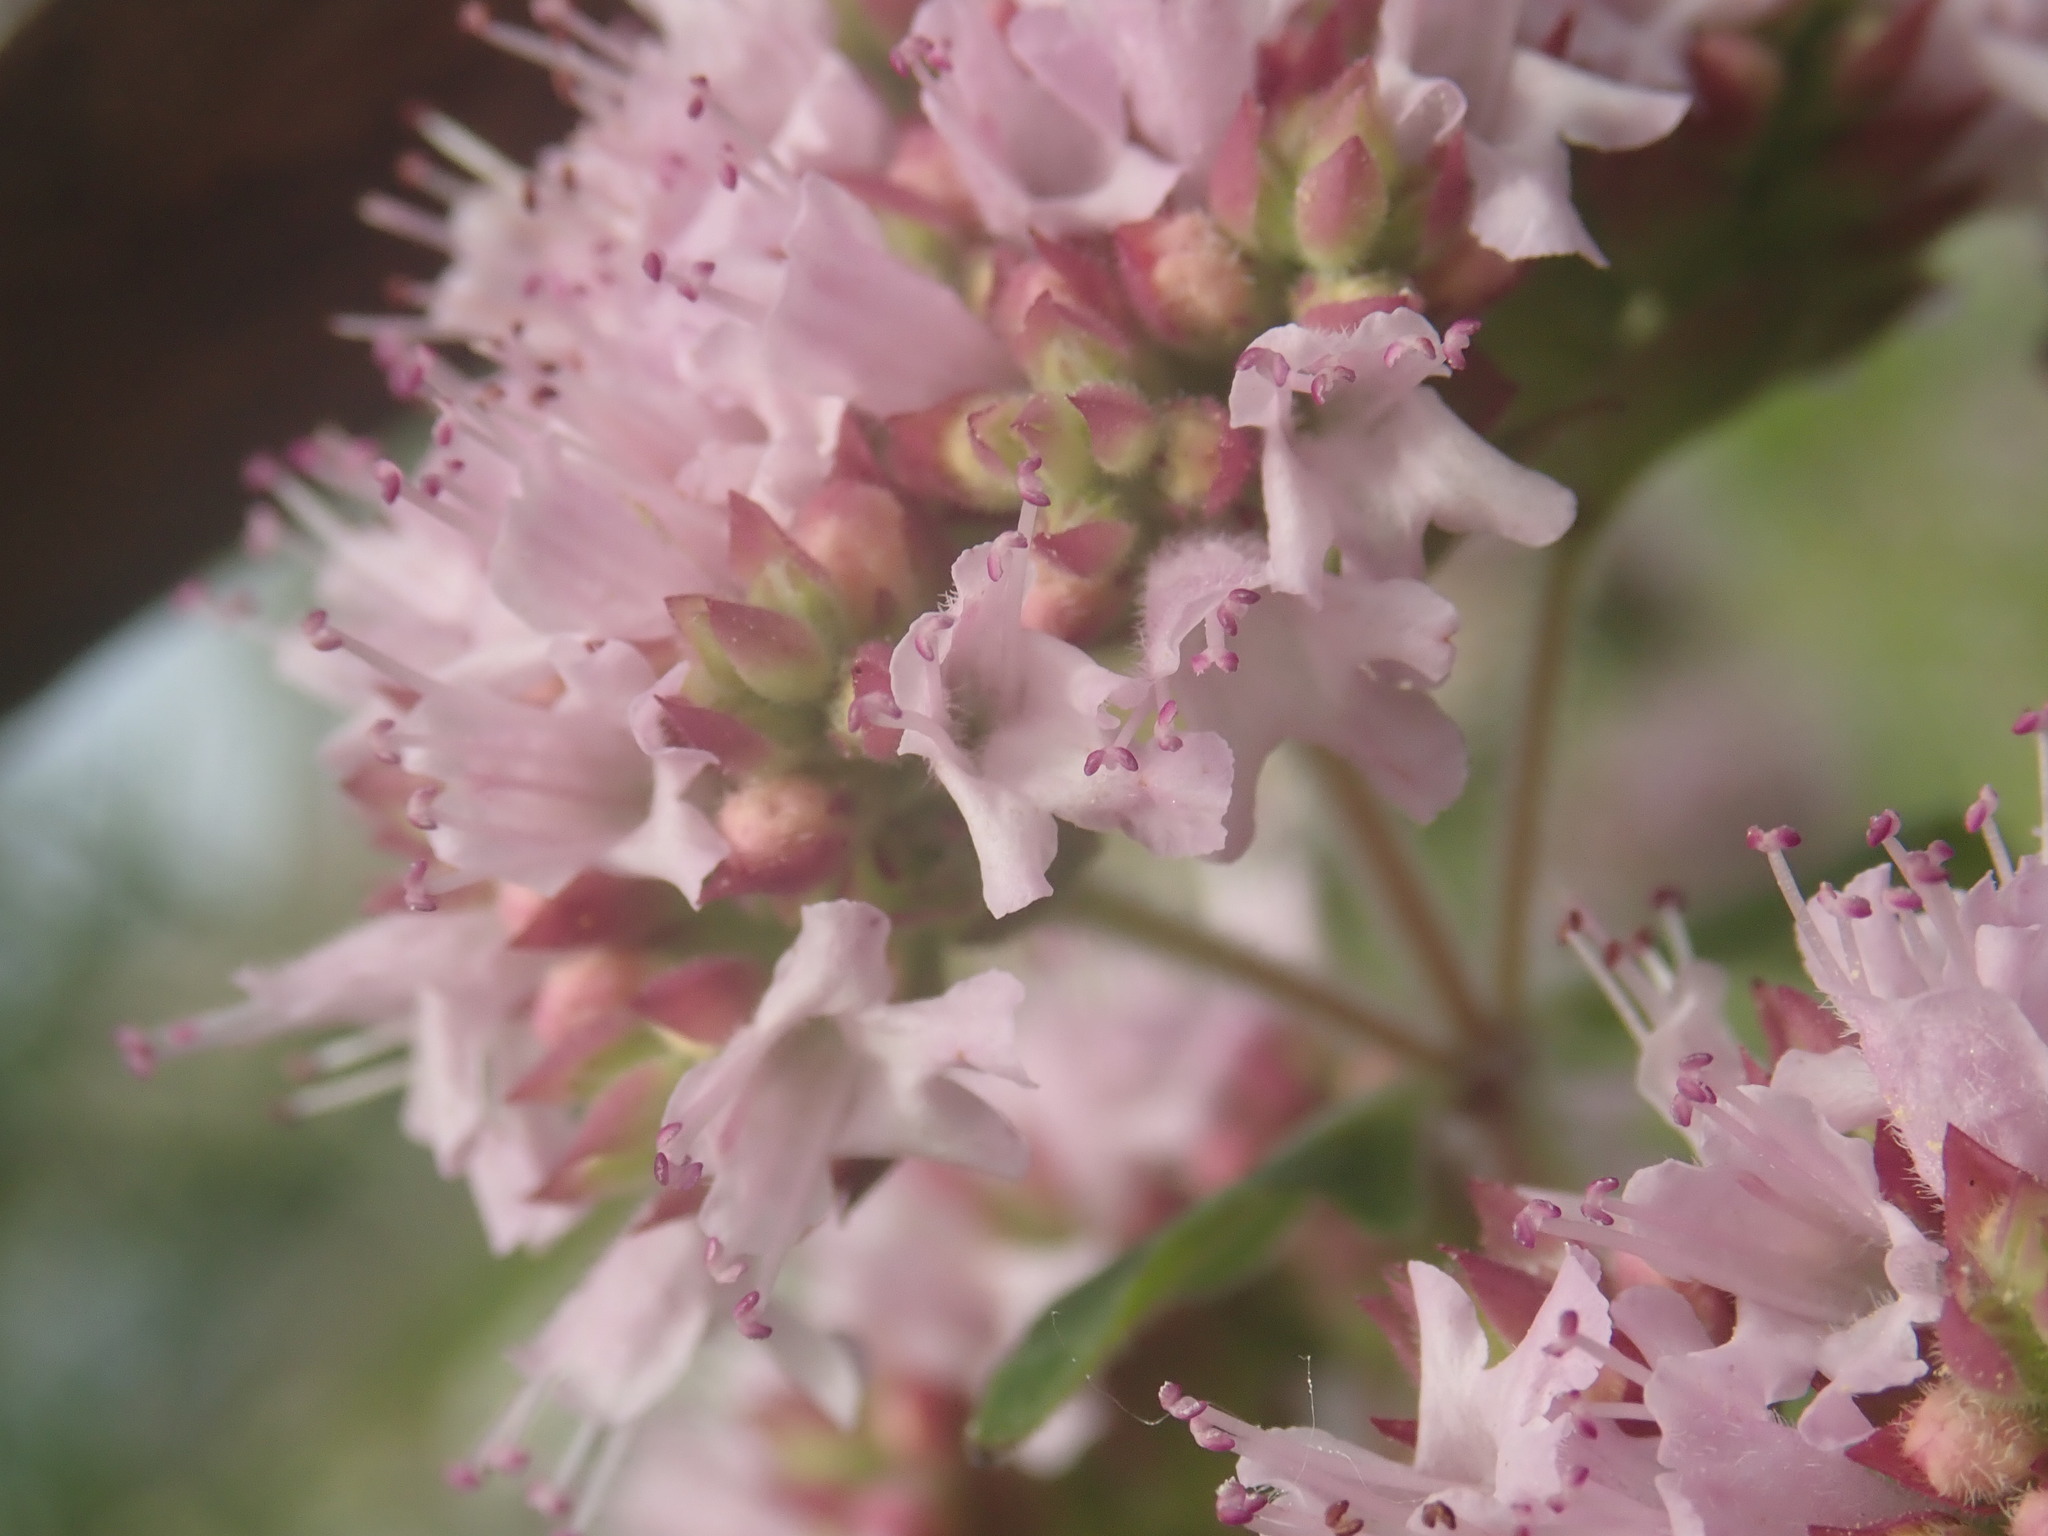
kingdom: Plantae
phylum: Tracheophyta
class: Magnoliopsida
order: Lamiales
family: Lamiaceae
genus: Origanum
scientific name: Origanum vulgare
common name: Wild marjoram
